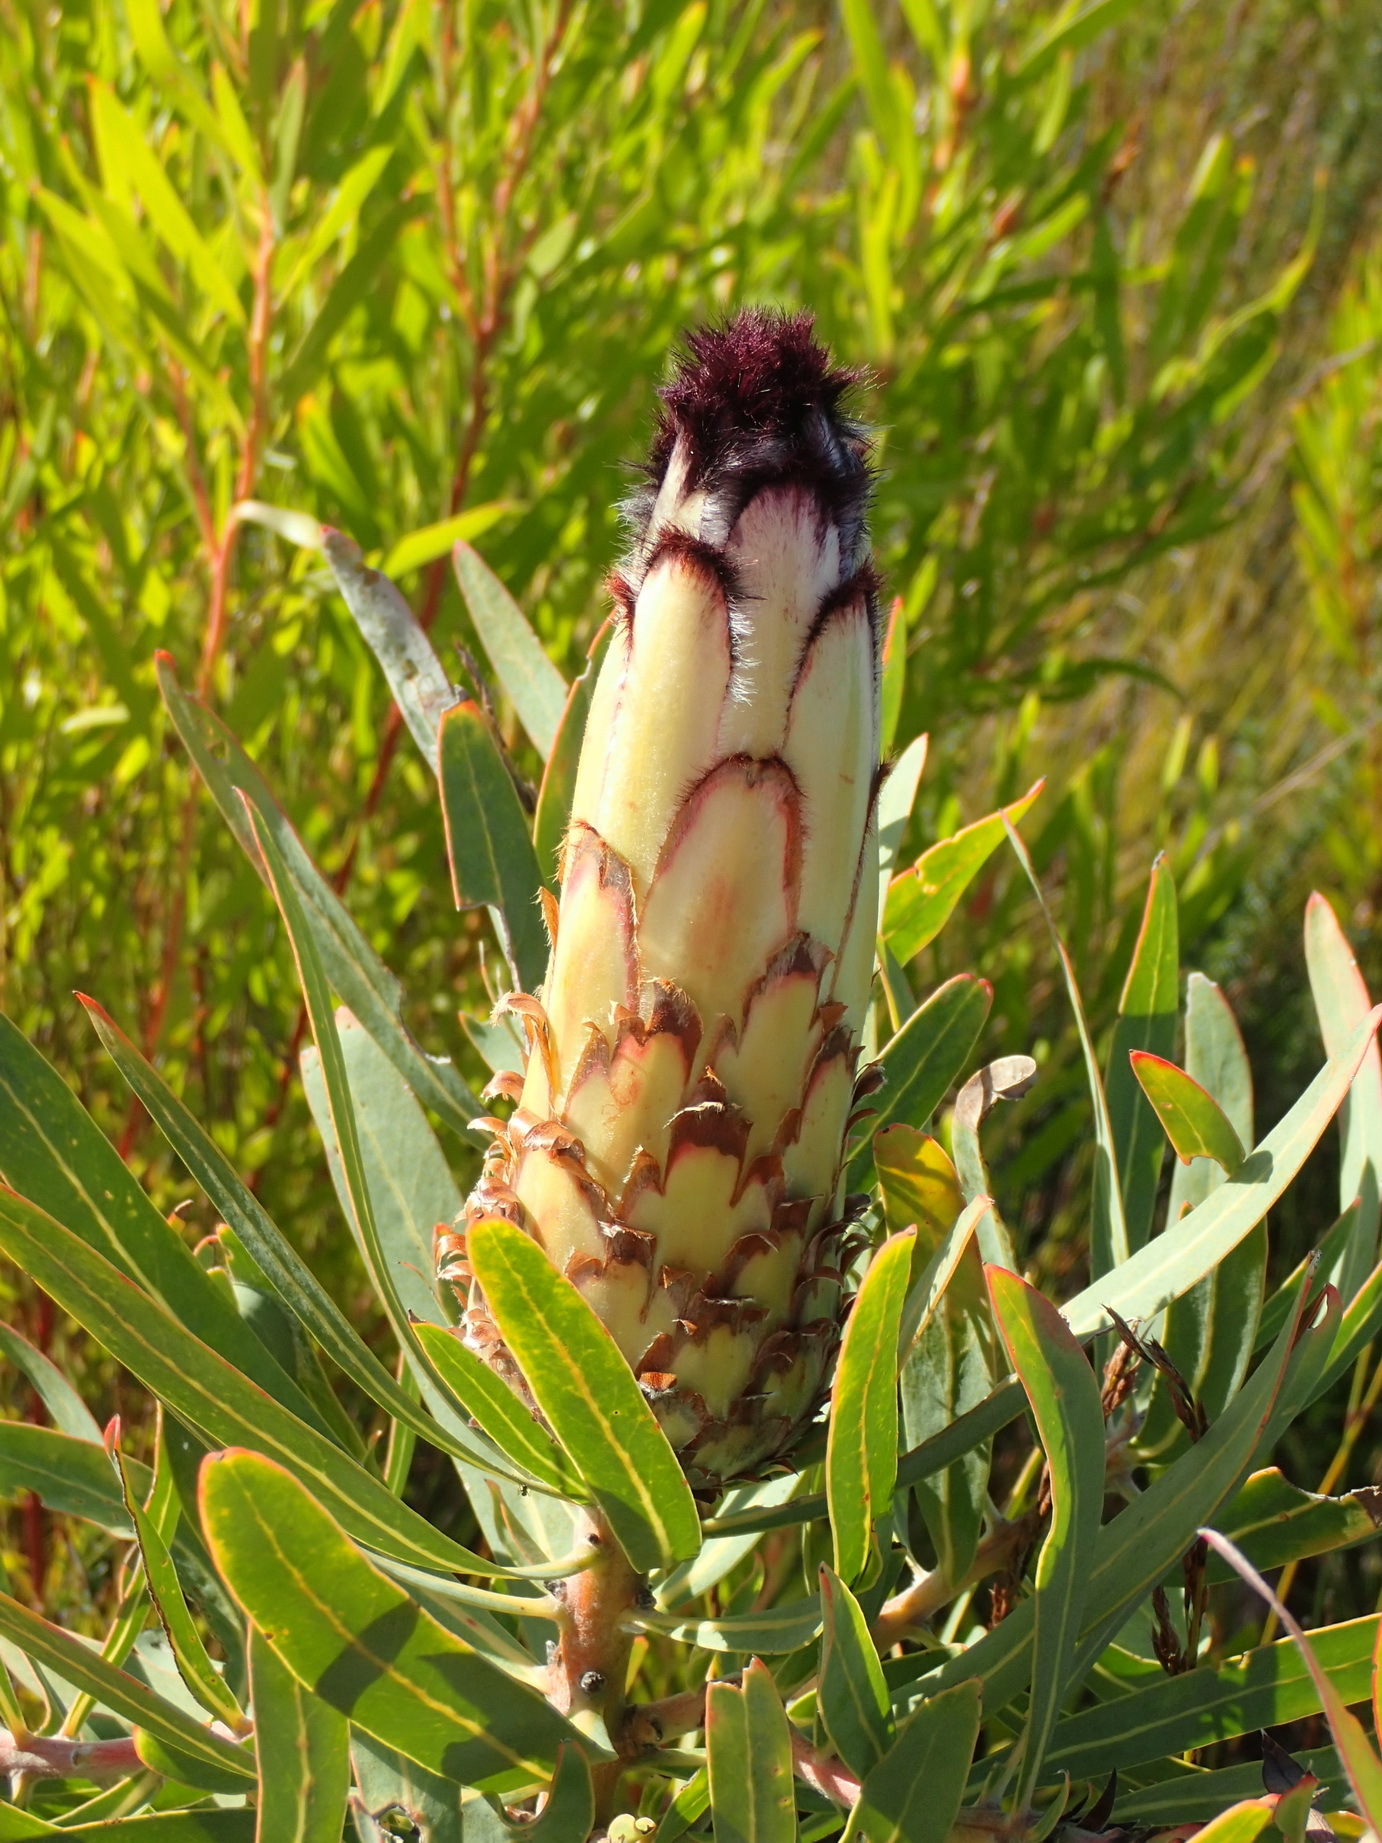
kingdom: Plantae
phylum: Tracheophyta
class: Magnoliopsida
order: Proteales
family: Proteaceae
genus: Protea
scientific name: Protea neriifolia
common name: Blue sugarbush
